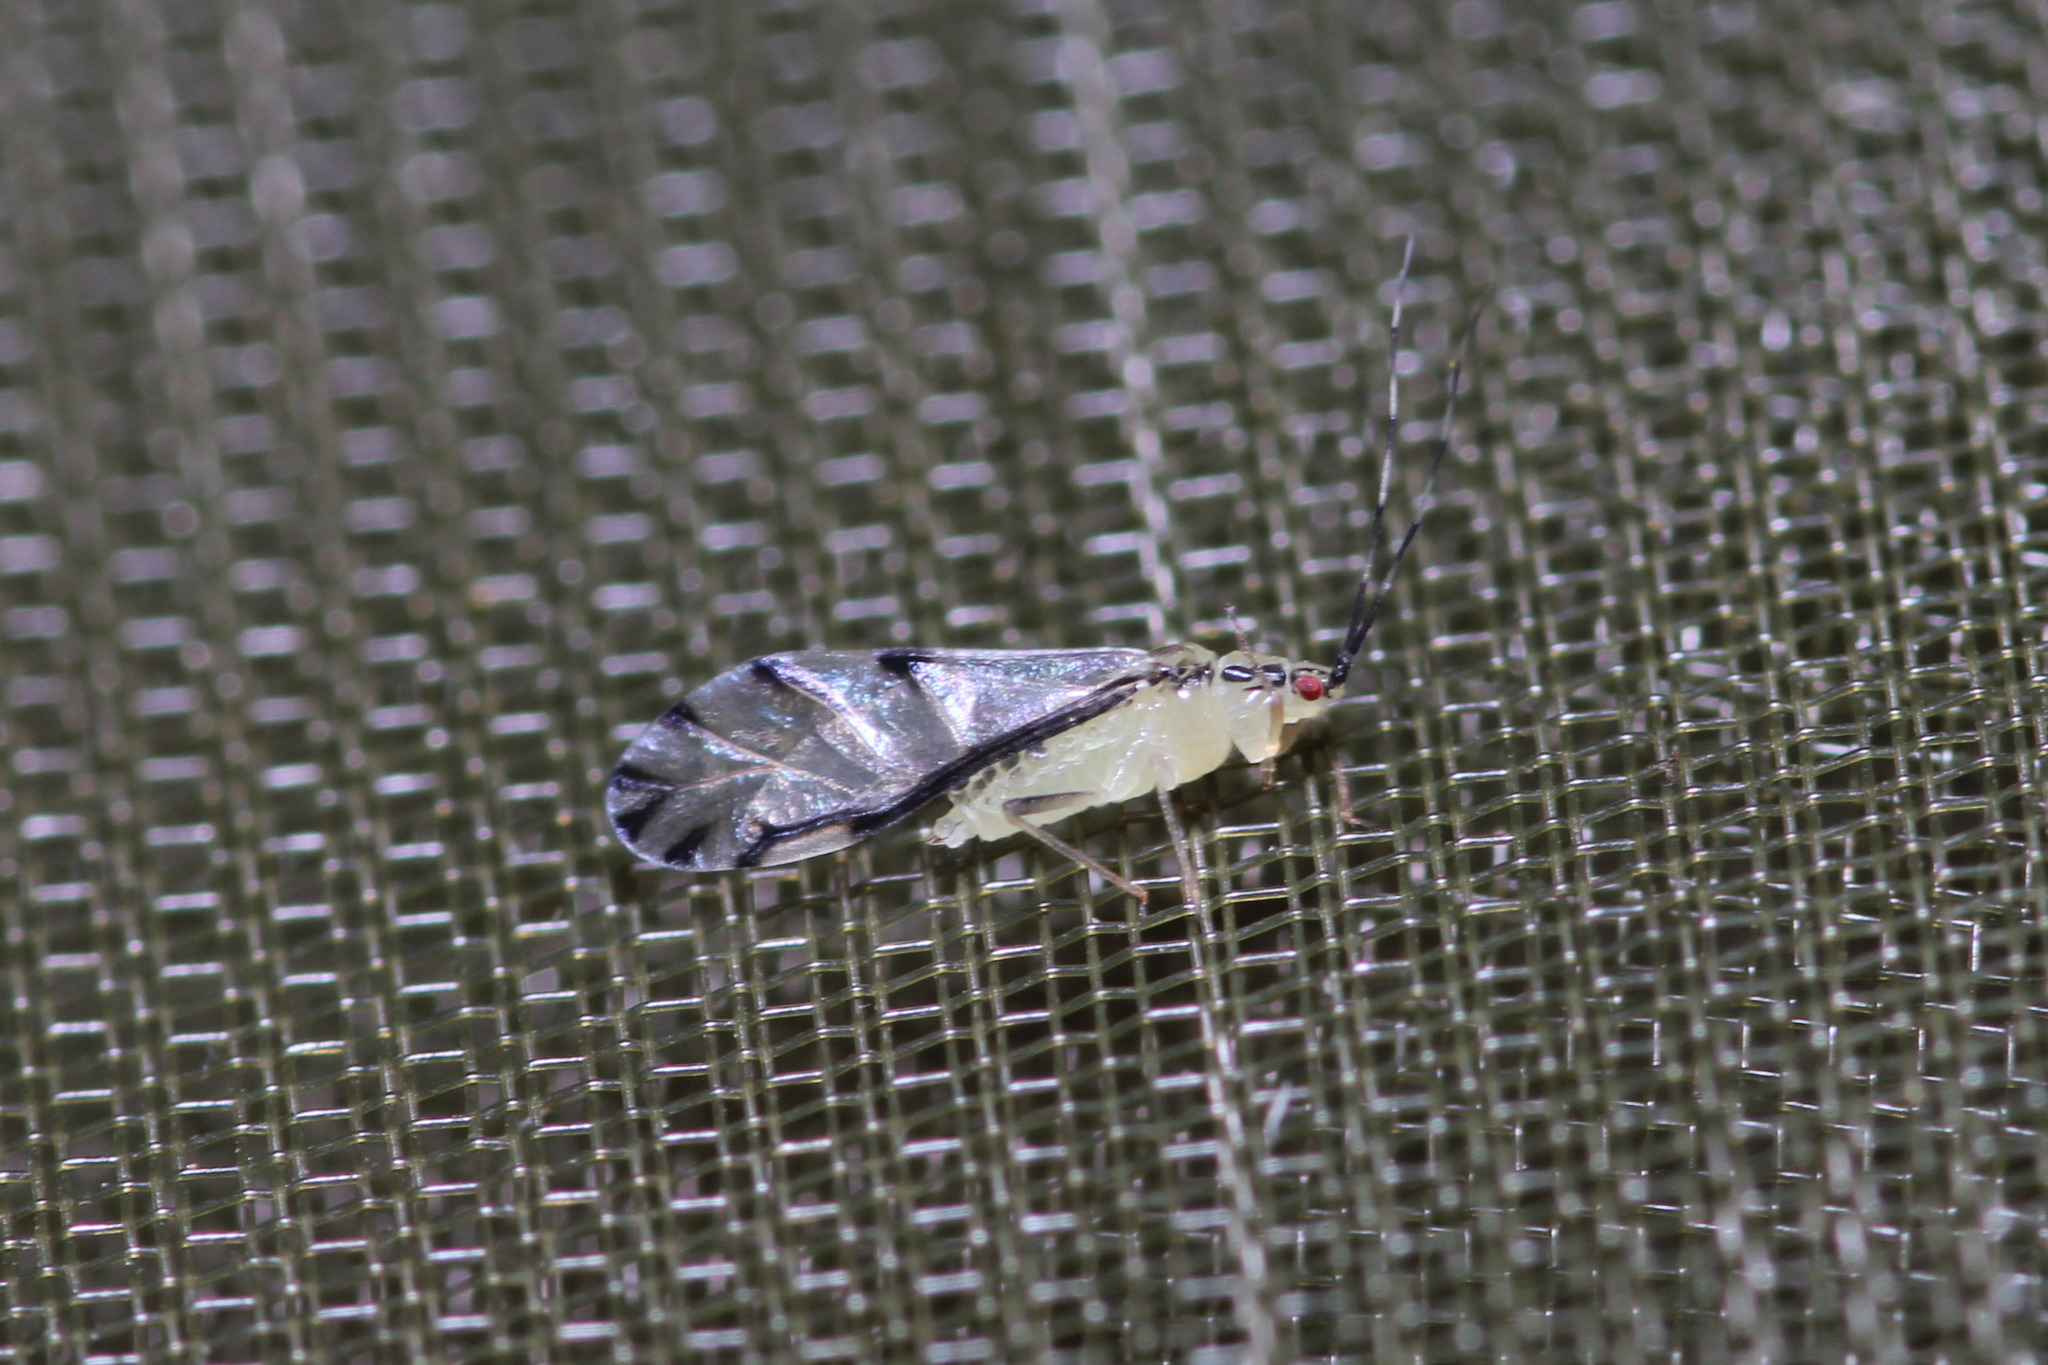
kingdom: Animalia
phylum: Arthropoda
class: Insecta
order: Hemiptera
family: Aphididae
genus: Eucallipterus
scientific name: Eucallipterus tiliae
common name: Aphid
